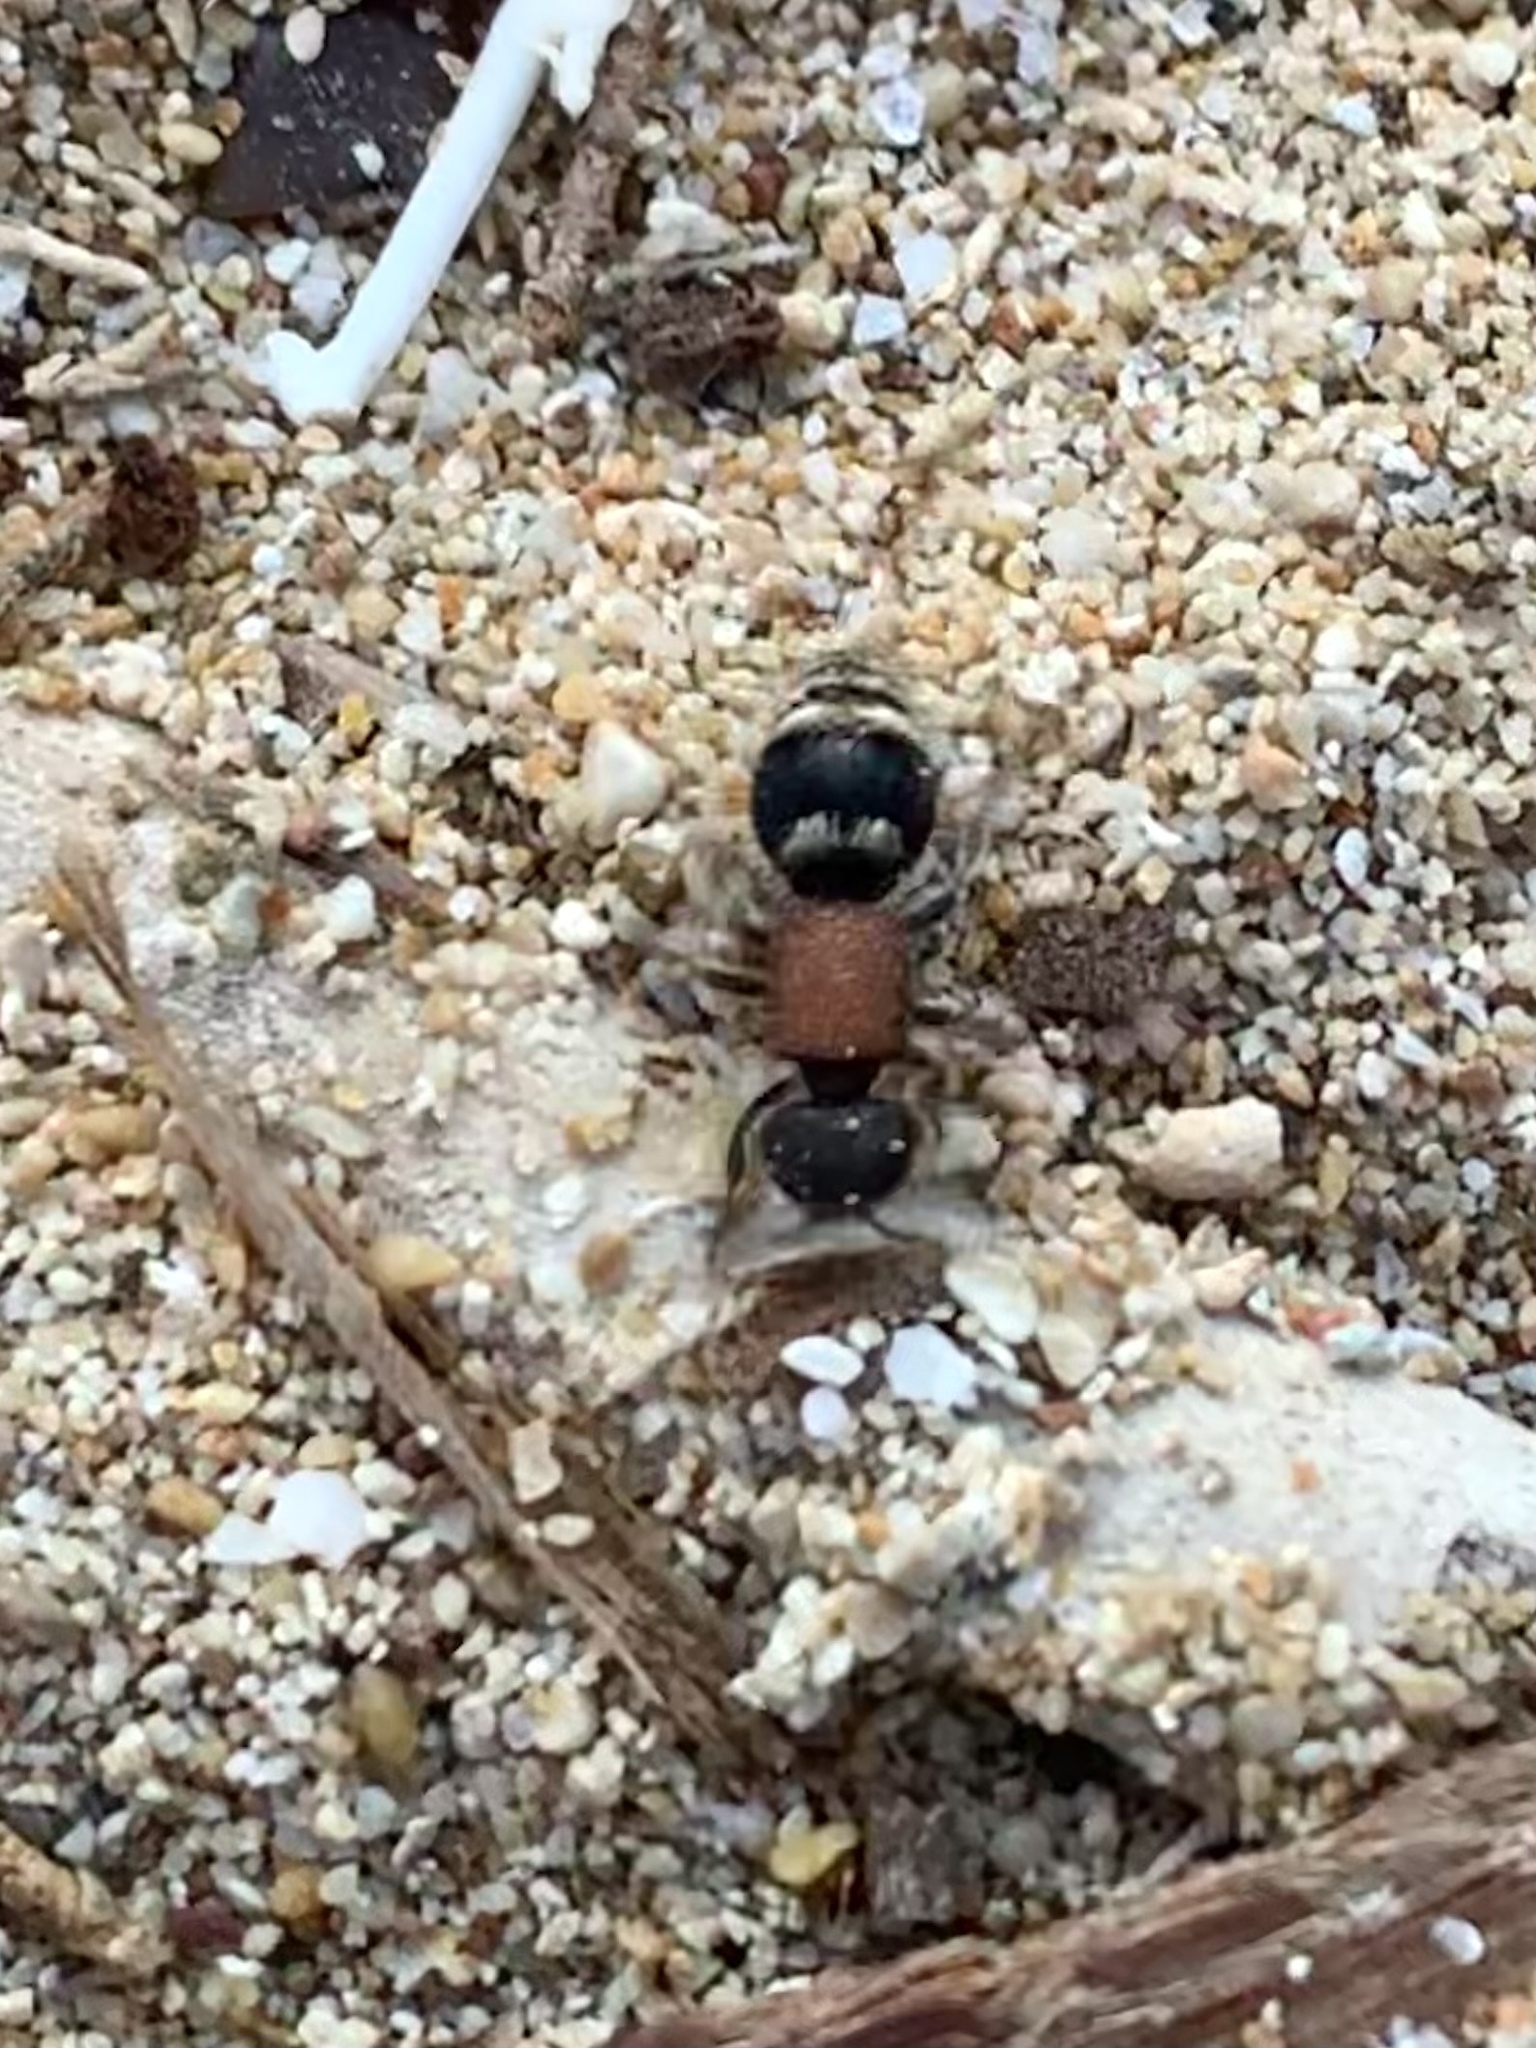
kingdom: Animalia
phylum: Arthropoda
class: Insecta
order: Hymenoptera
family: Mutillidae
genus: Tropidotilla
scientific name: Tropidotilla litoralis
